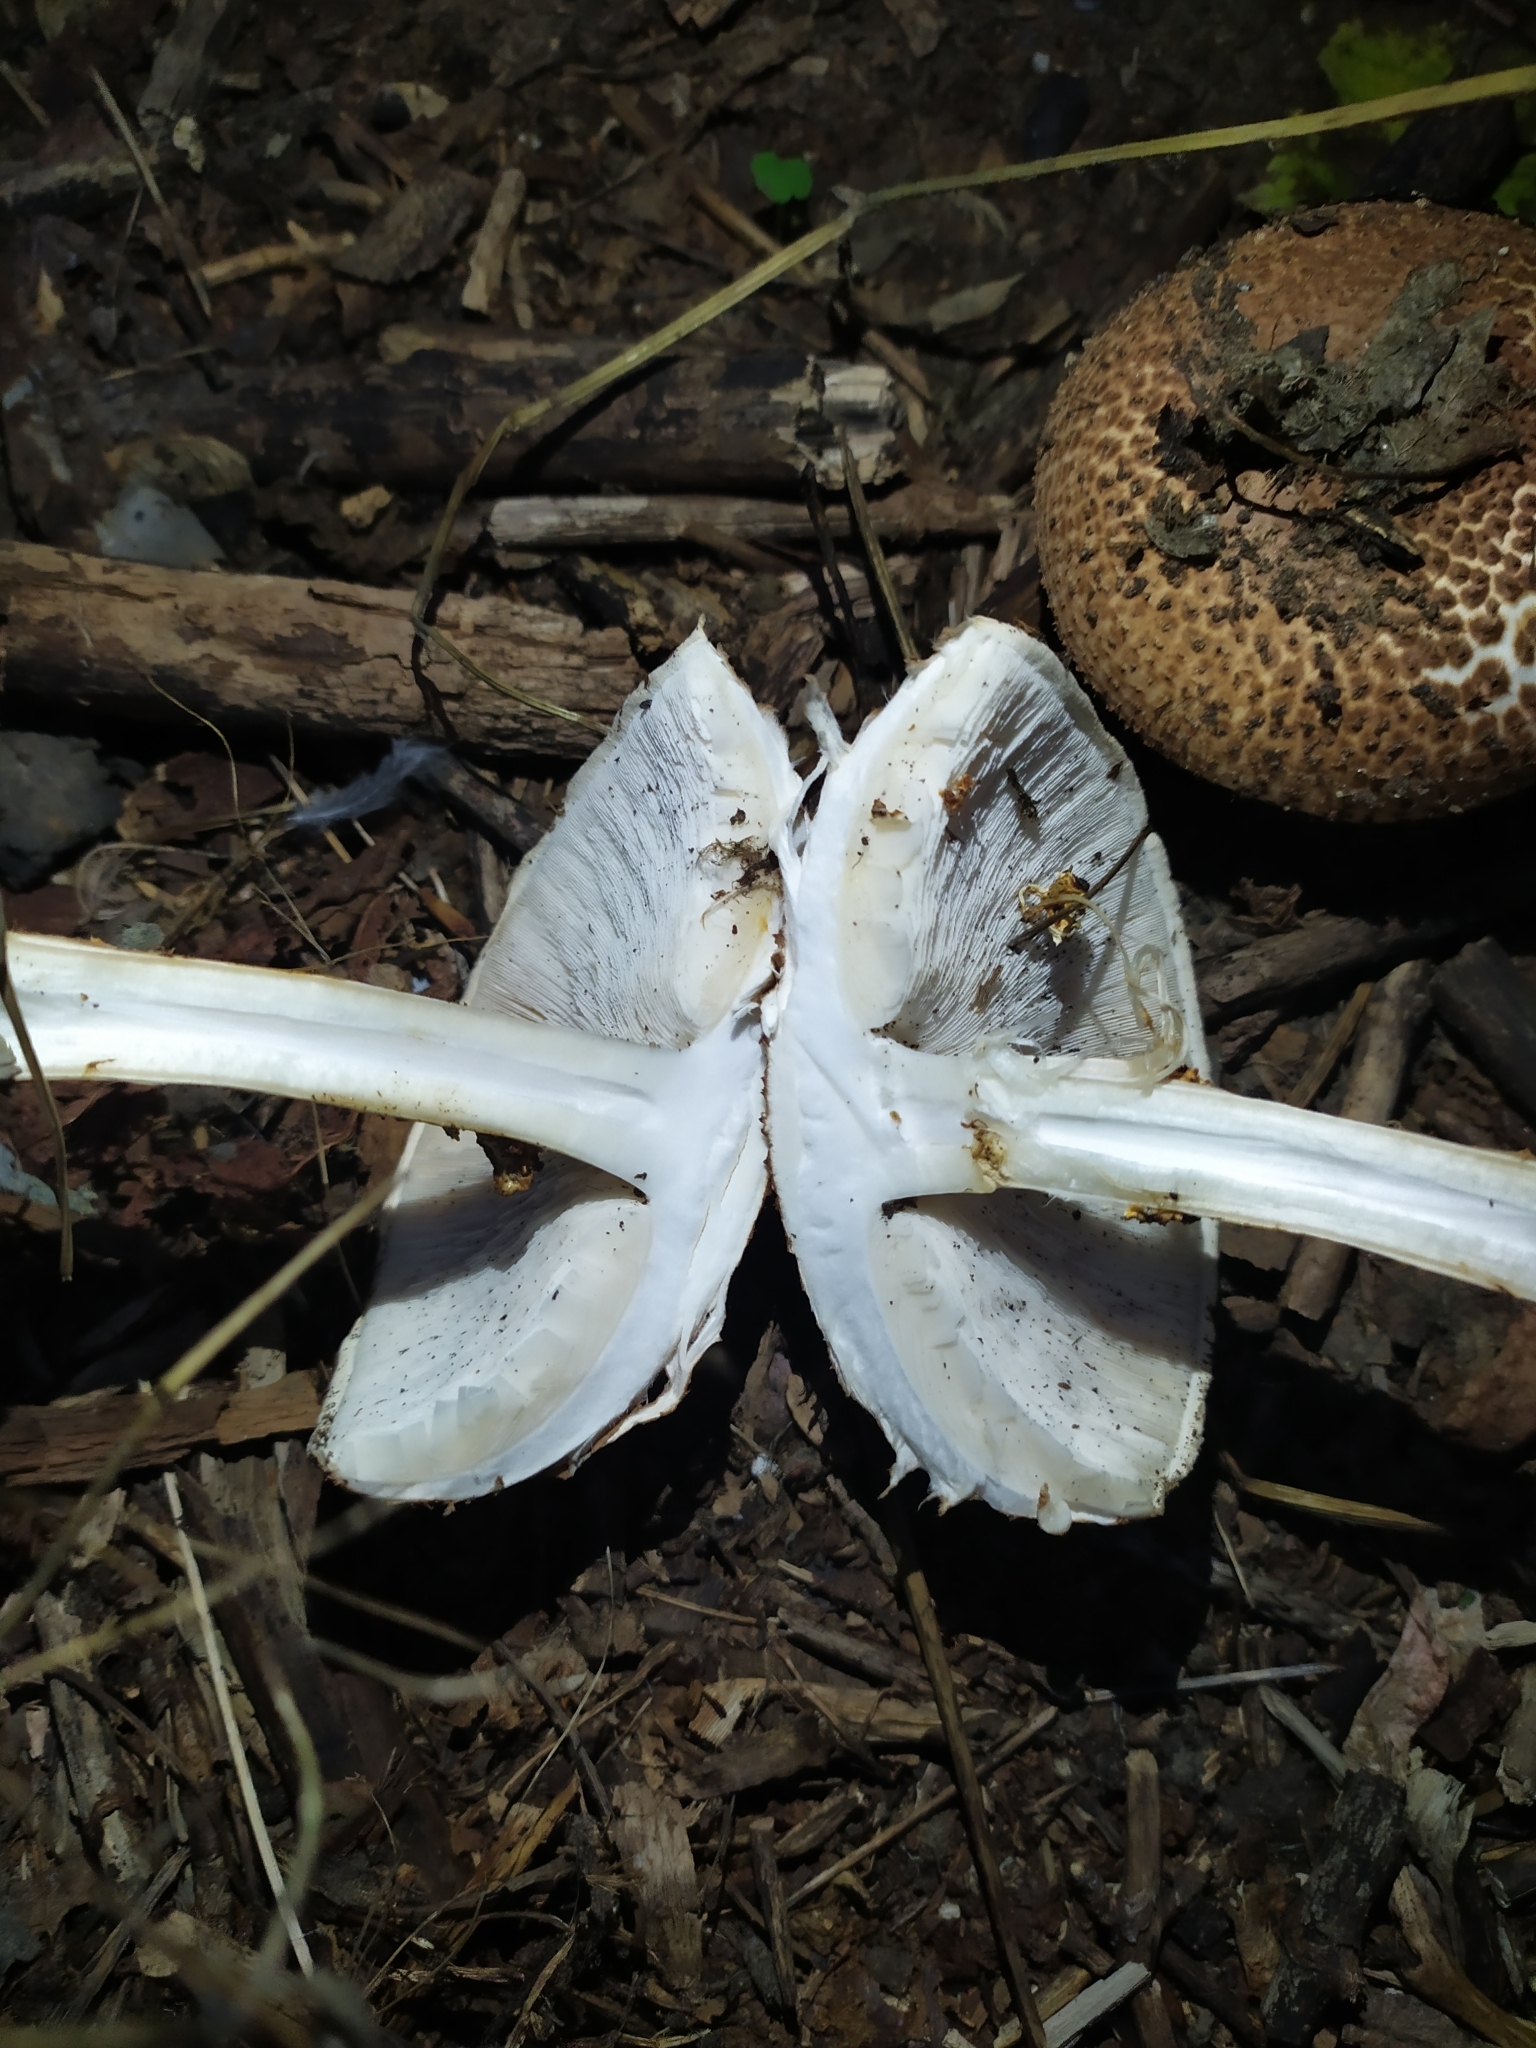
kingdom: Fungi
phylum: Basidiomycota
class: Agaricomycetes
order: Agaricales
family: Agaricaceae
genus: Echinoderma
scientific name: Echinoderma asperum
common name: Freckled dapperling
